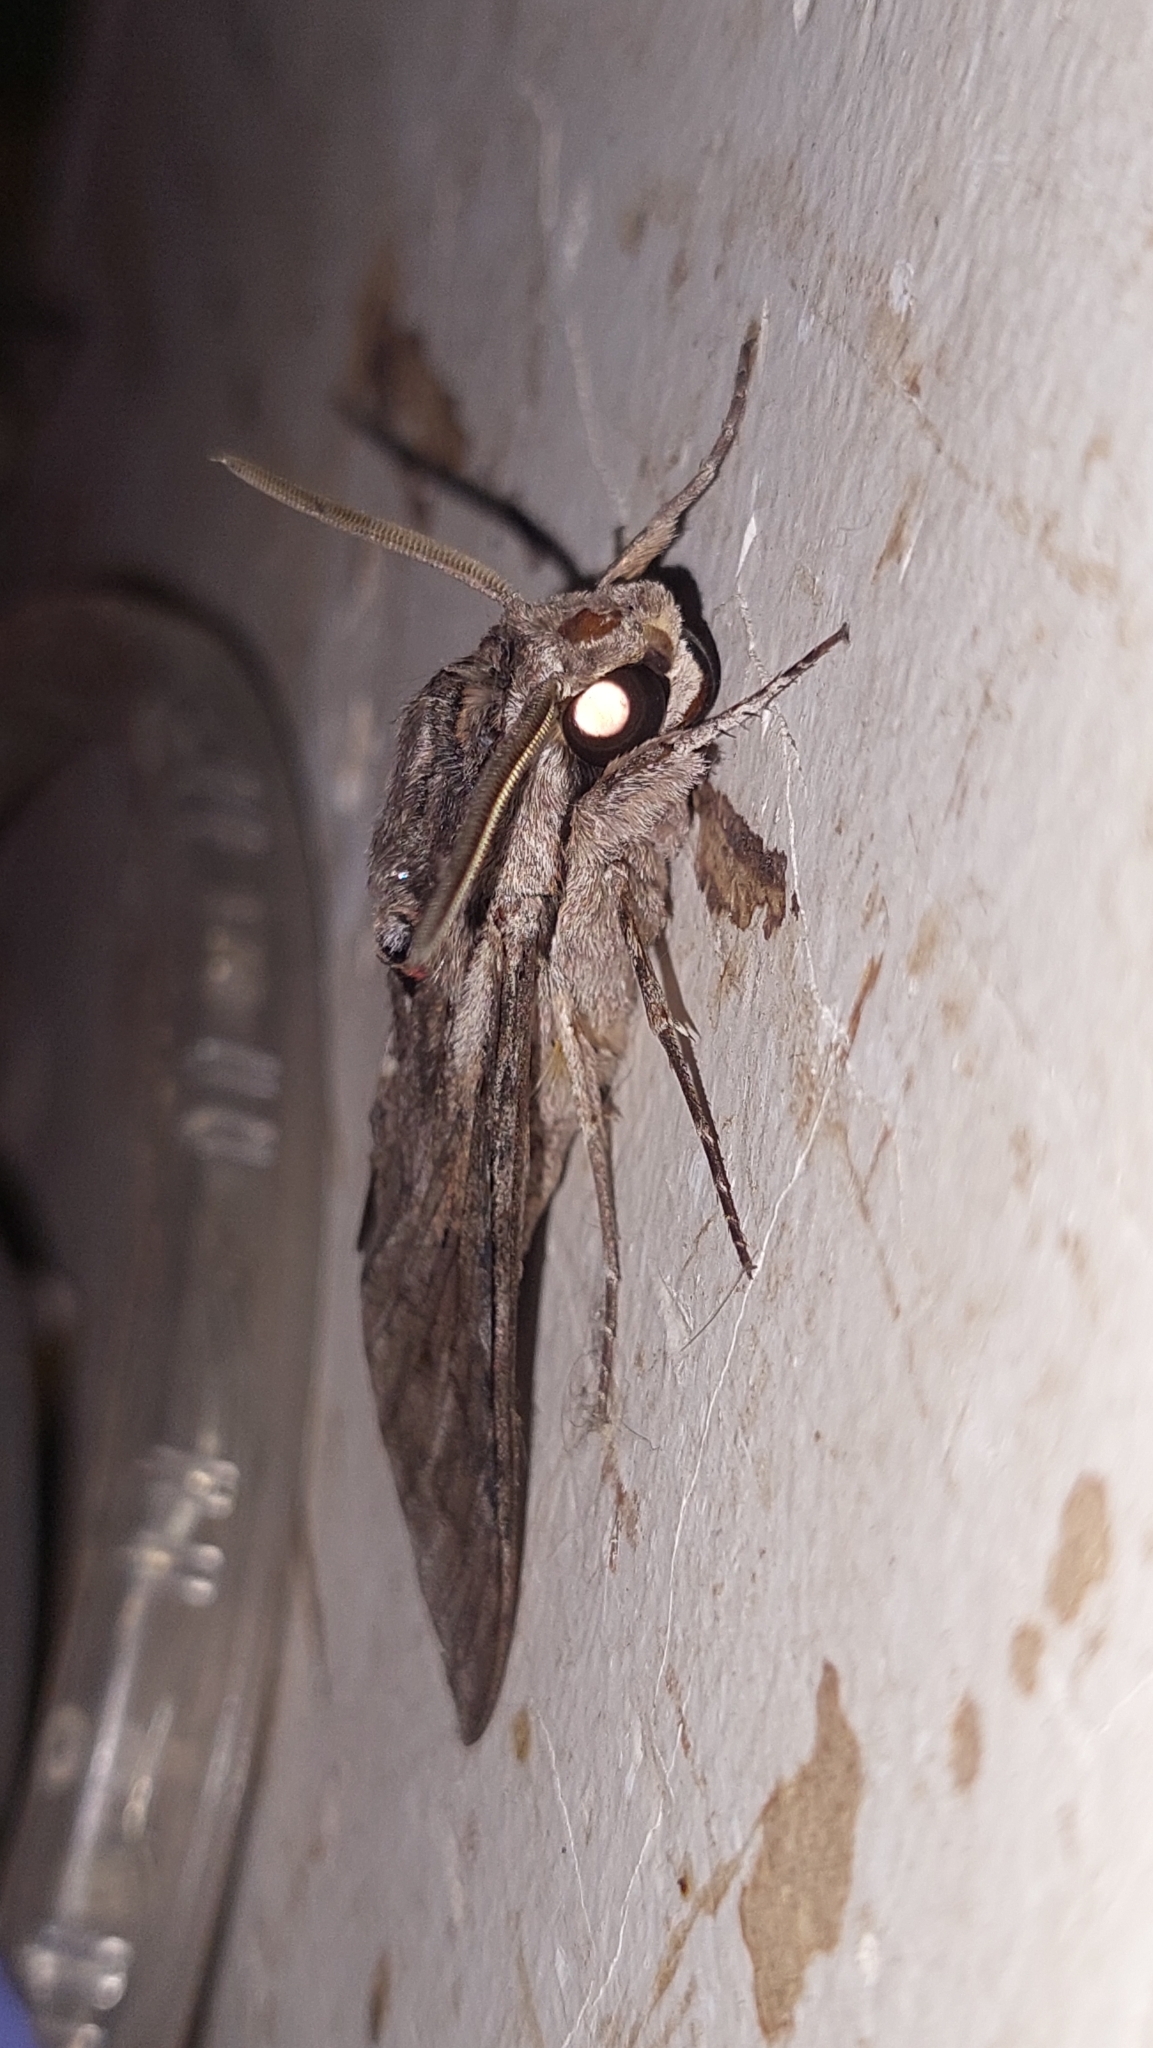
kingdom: Animalia
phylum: Arthropoda
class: Insecta
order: Lepidoptera
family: Sphingidae
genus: Agrius
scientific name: Agrius convolvuli
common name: Convolvulus hawkmoth
